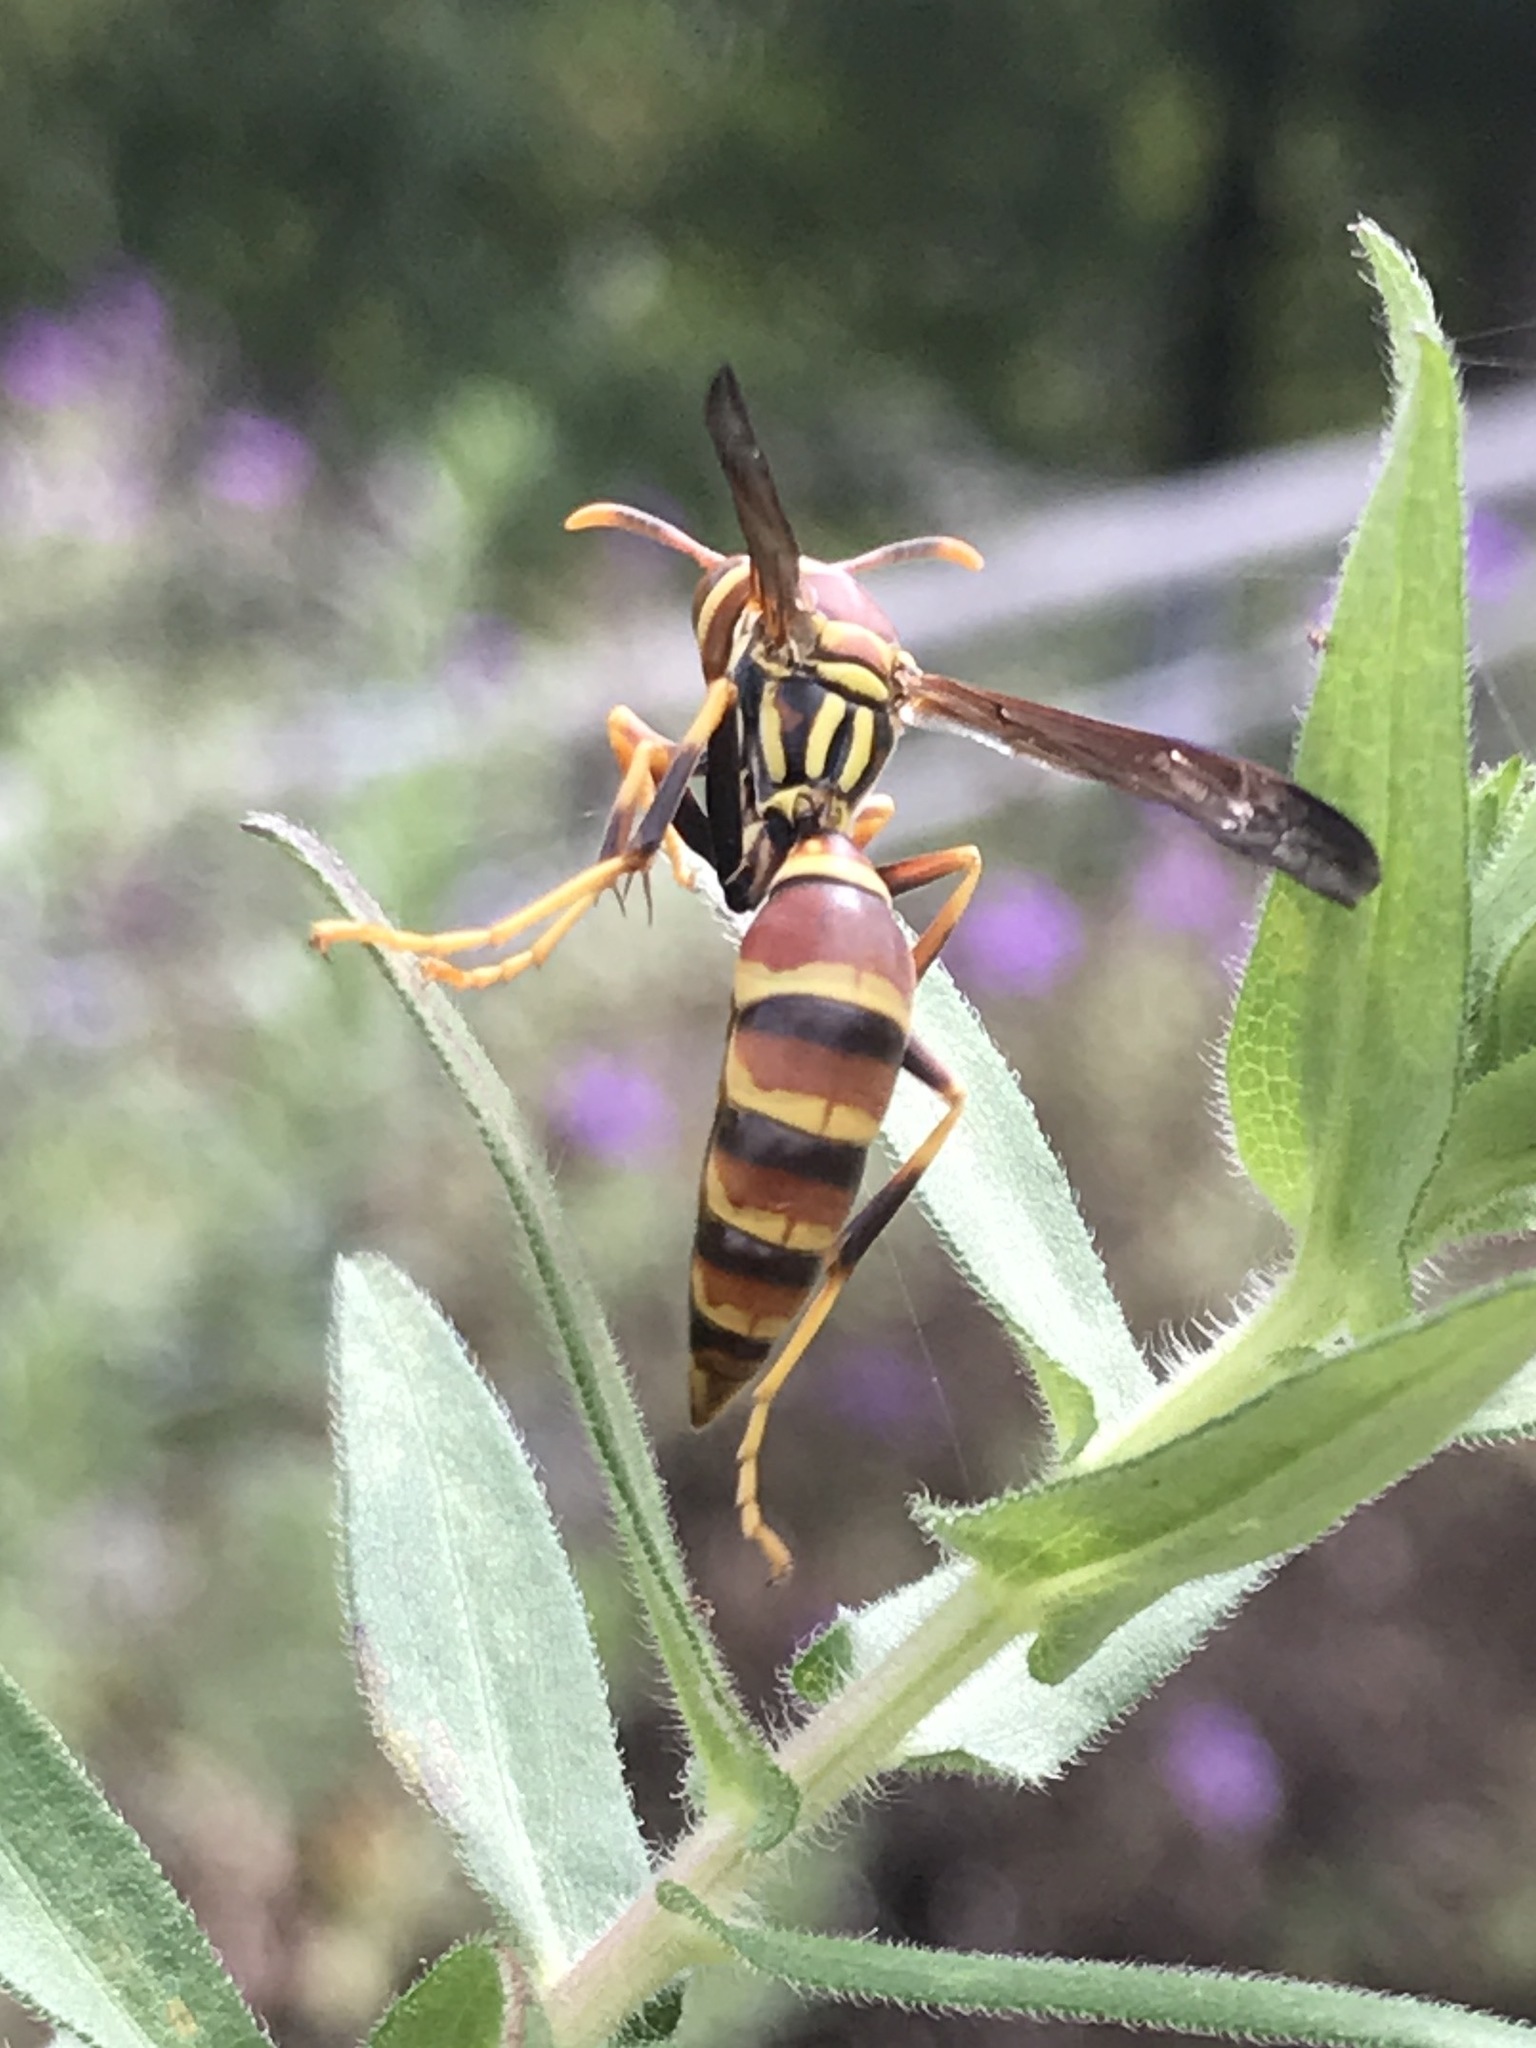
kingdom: Animalia
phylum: Arthropoda
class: Insecta
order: Hymenoptera
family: Eumenidae
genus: Polistes
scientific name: Polistes exclamans
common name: Paper wasp
